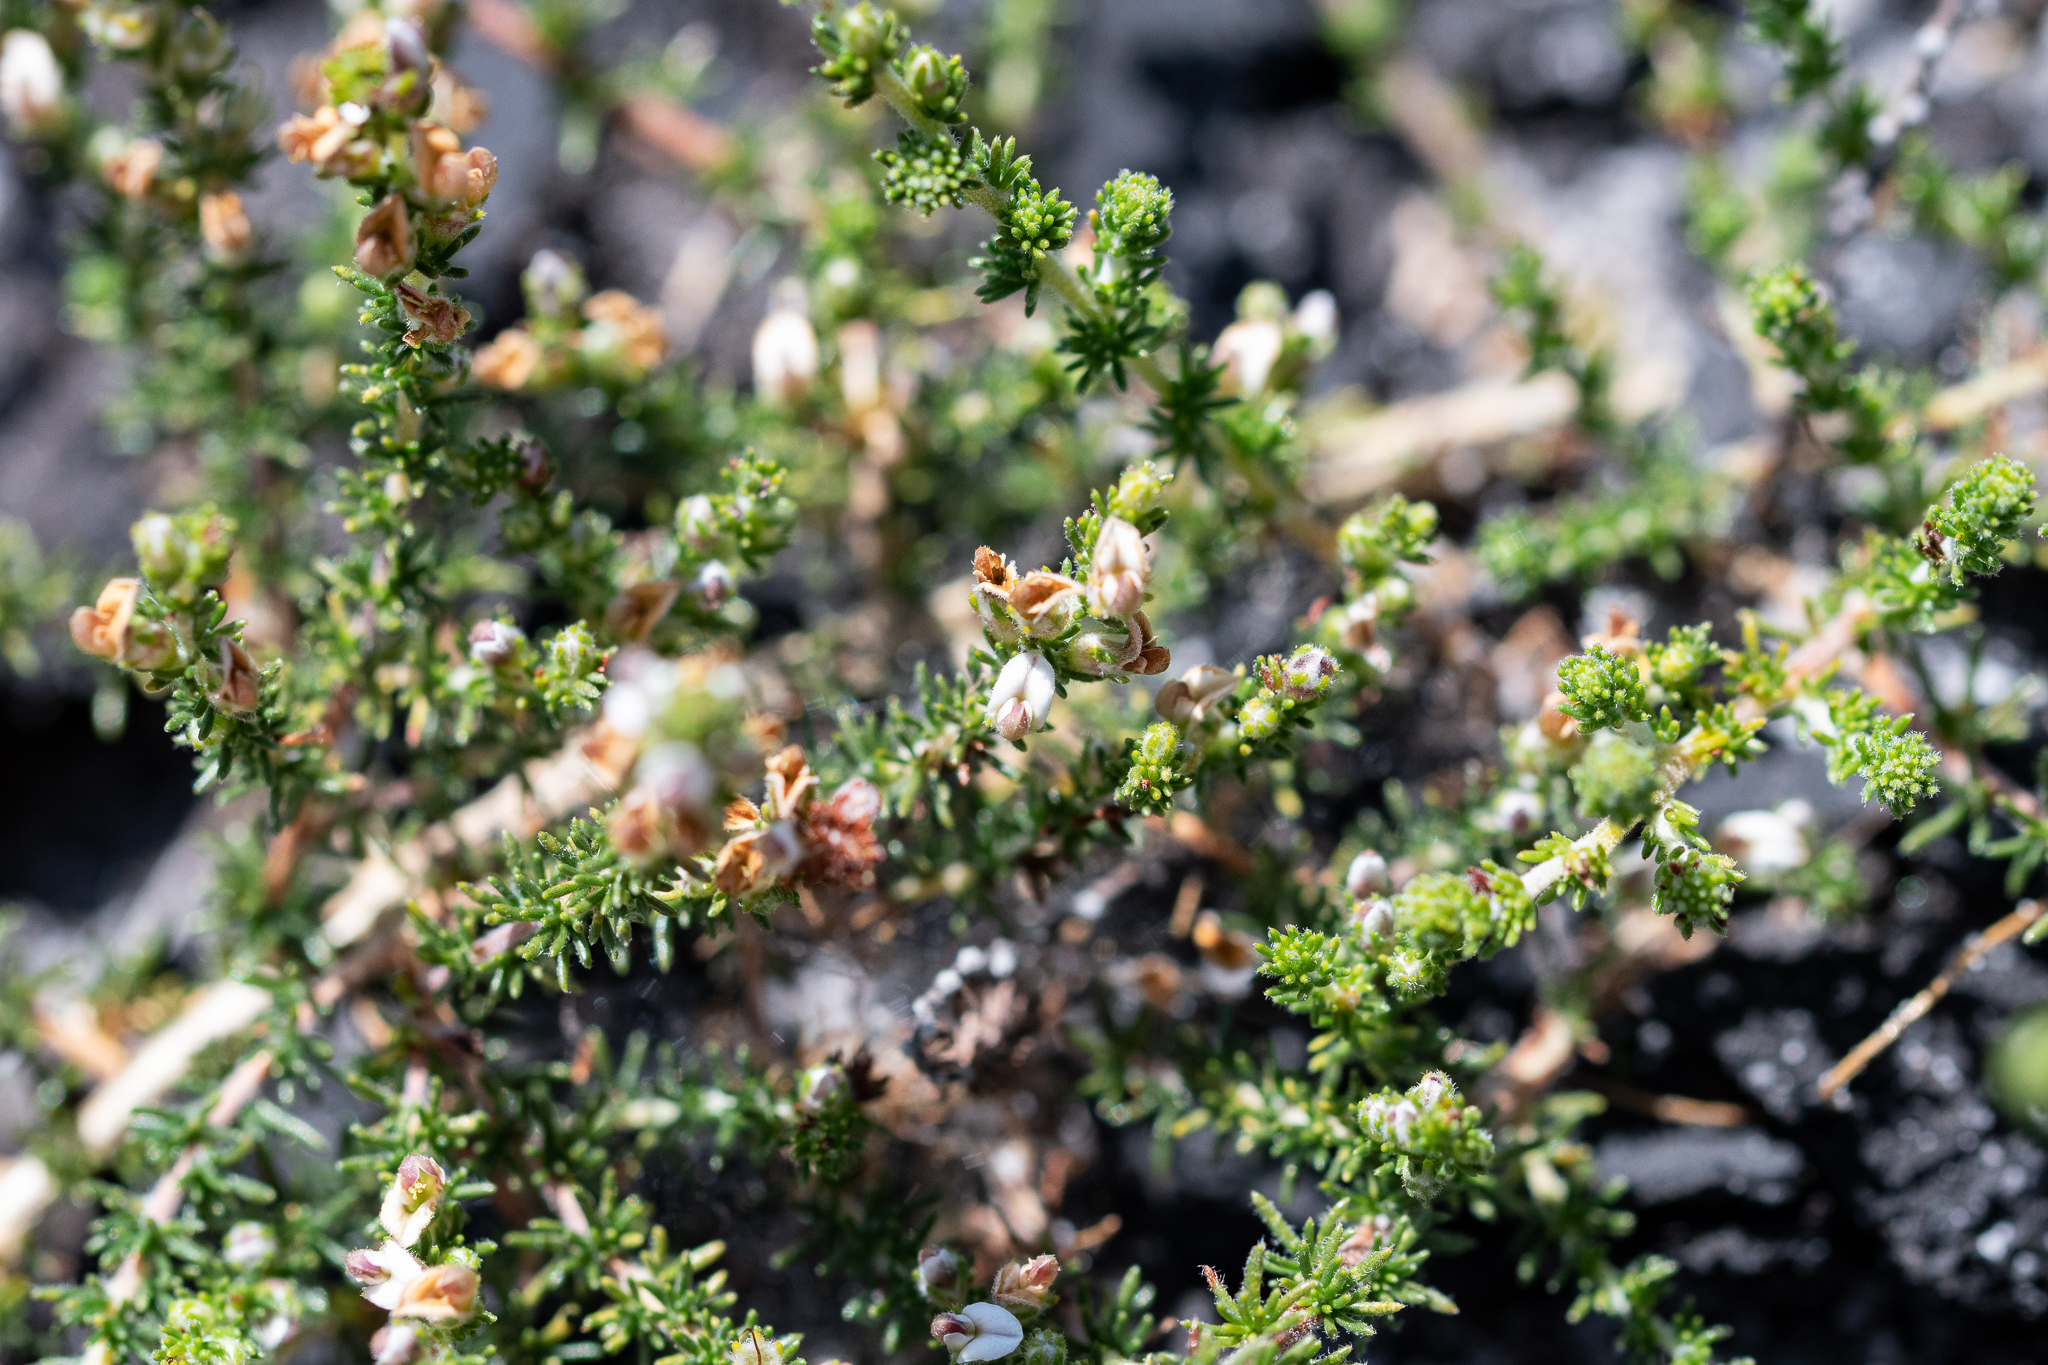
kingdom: Plantae
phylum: Tracheophyta
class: Magnoliopsida
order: Fabales
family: Fabaceae
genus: Aspalathus
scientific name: Aspalathus hispida
